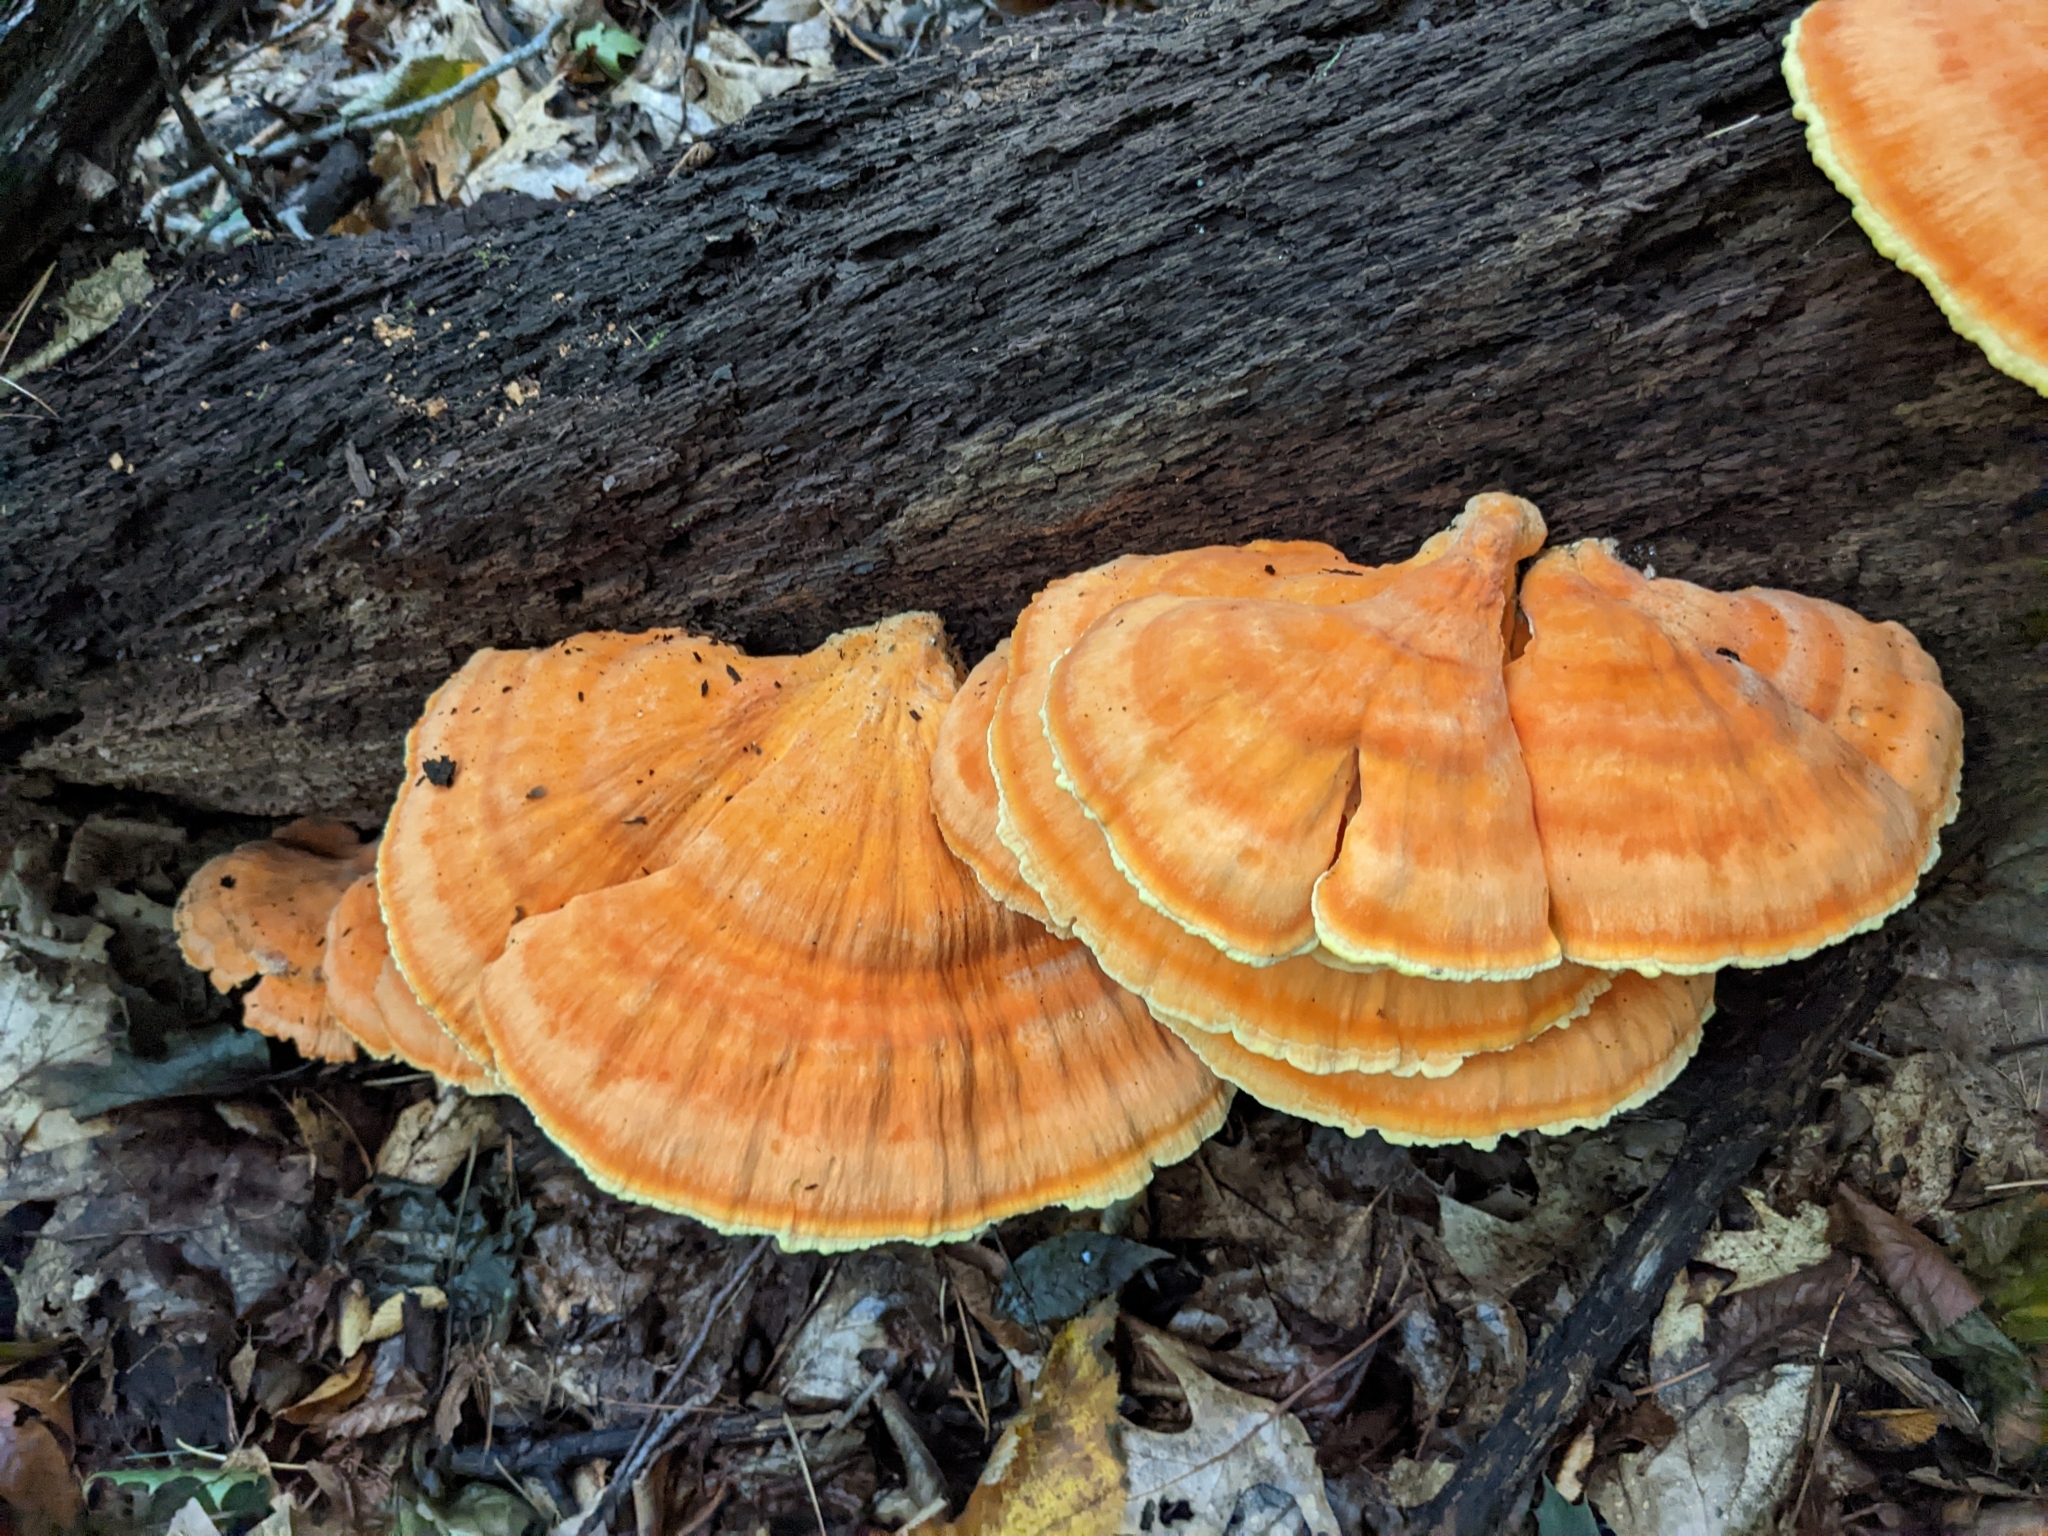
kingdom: Fungi
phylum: Basidiomycota
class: Agaricomycetes
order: Polyporales
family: Laetiporaceae
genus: Laetiporus
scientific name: Laetiporus sulphureus
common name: Chicken of the woods
